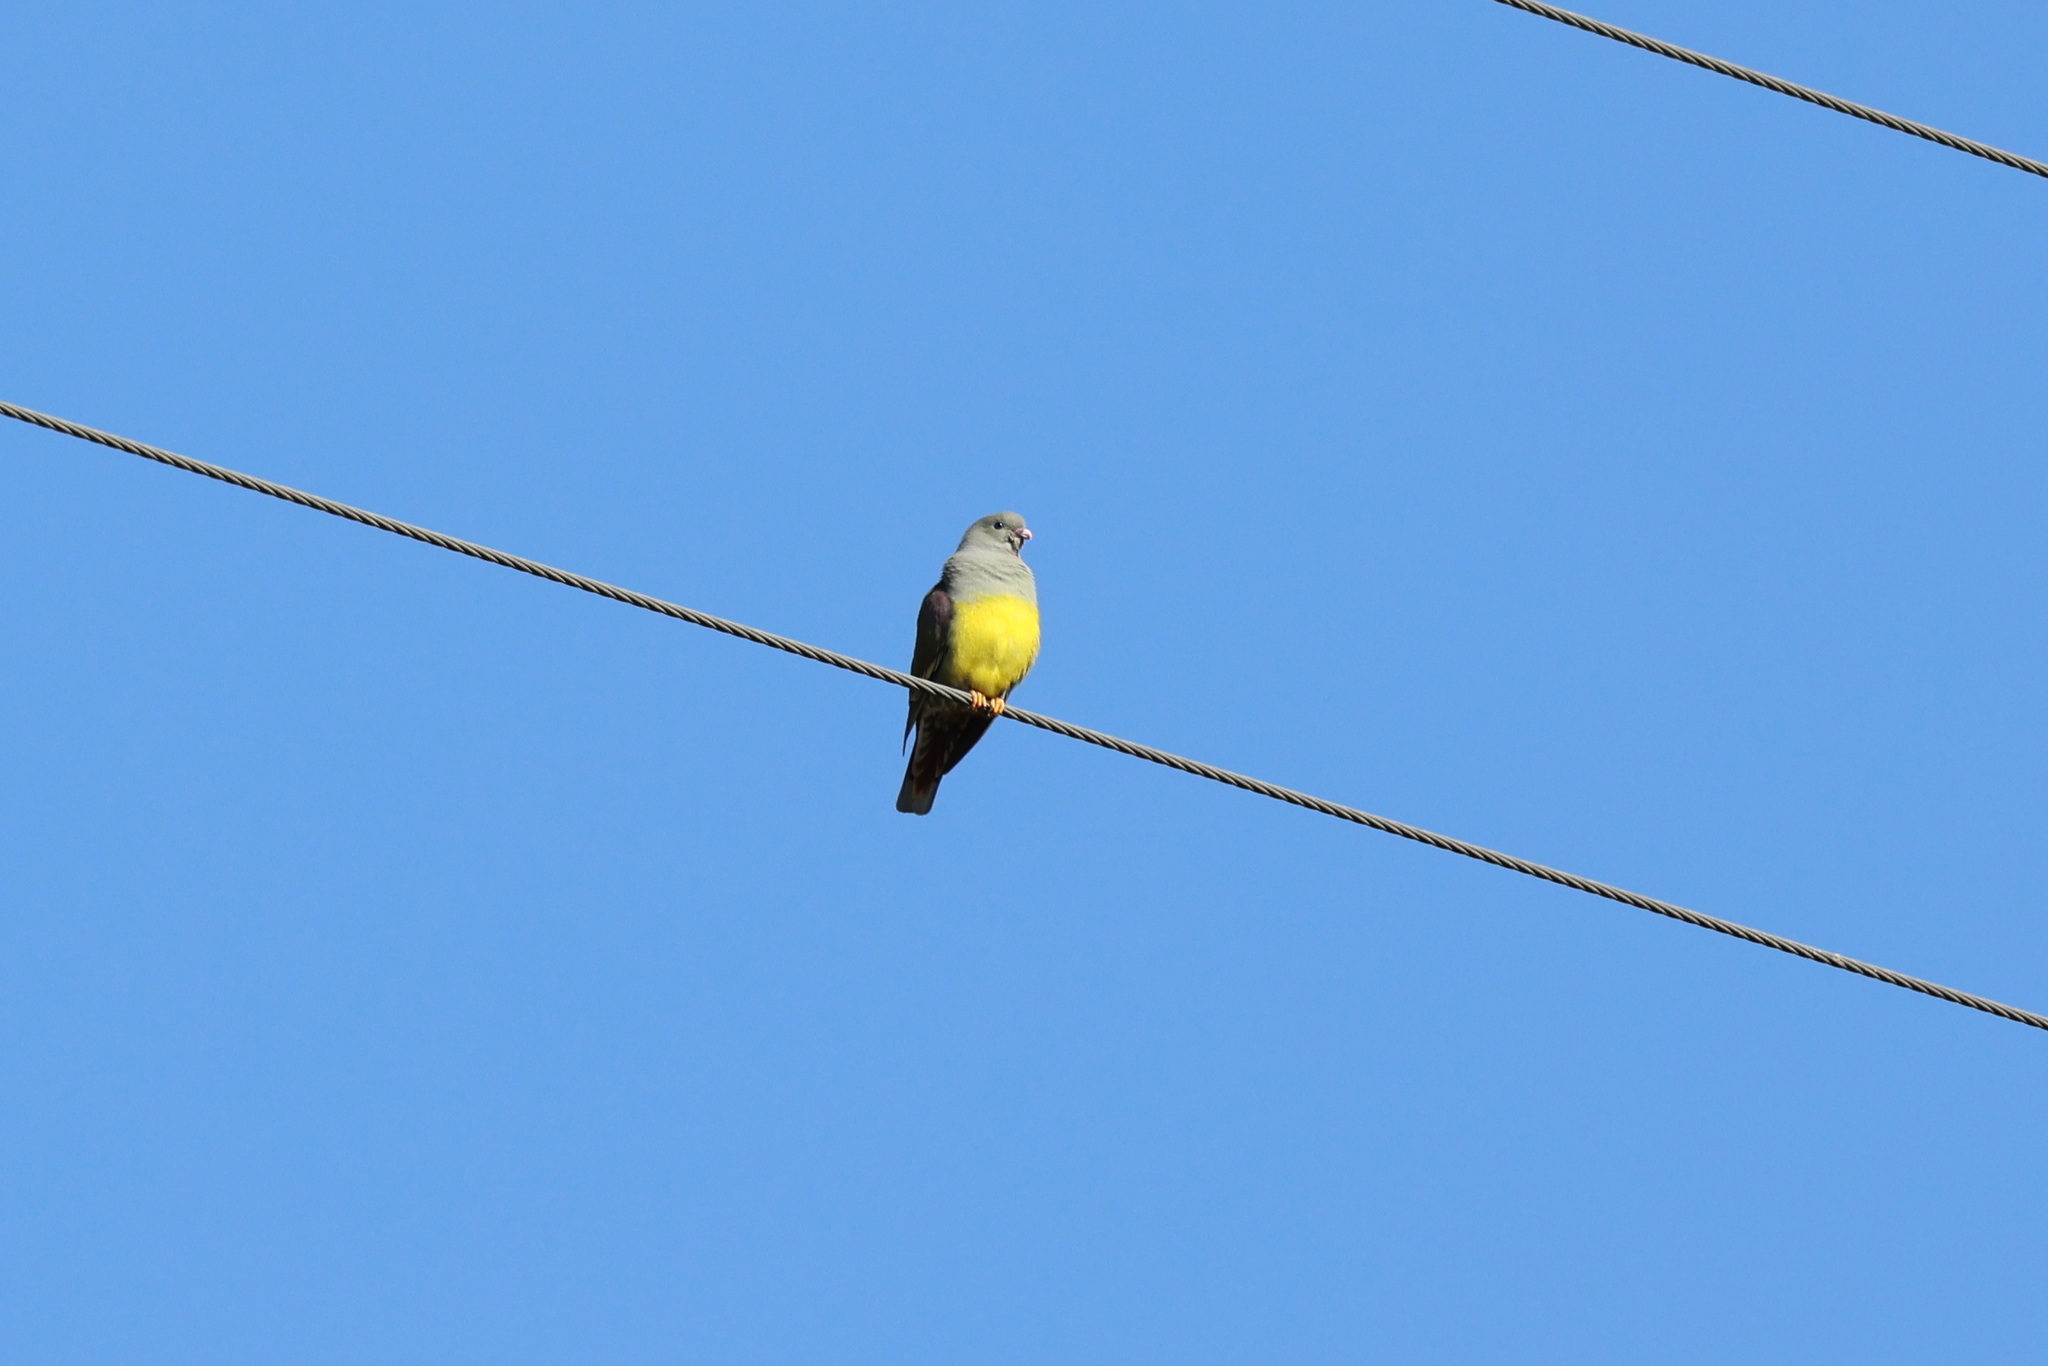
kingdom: Animalia
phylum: Chordata
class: Aves
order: Columbiformes
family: Columbidae
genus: Treron
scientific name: Treron waalia
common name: Bruce's green pigeon
